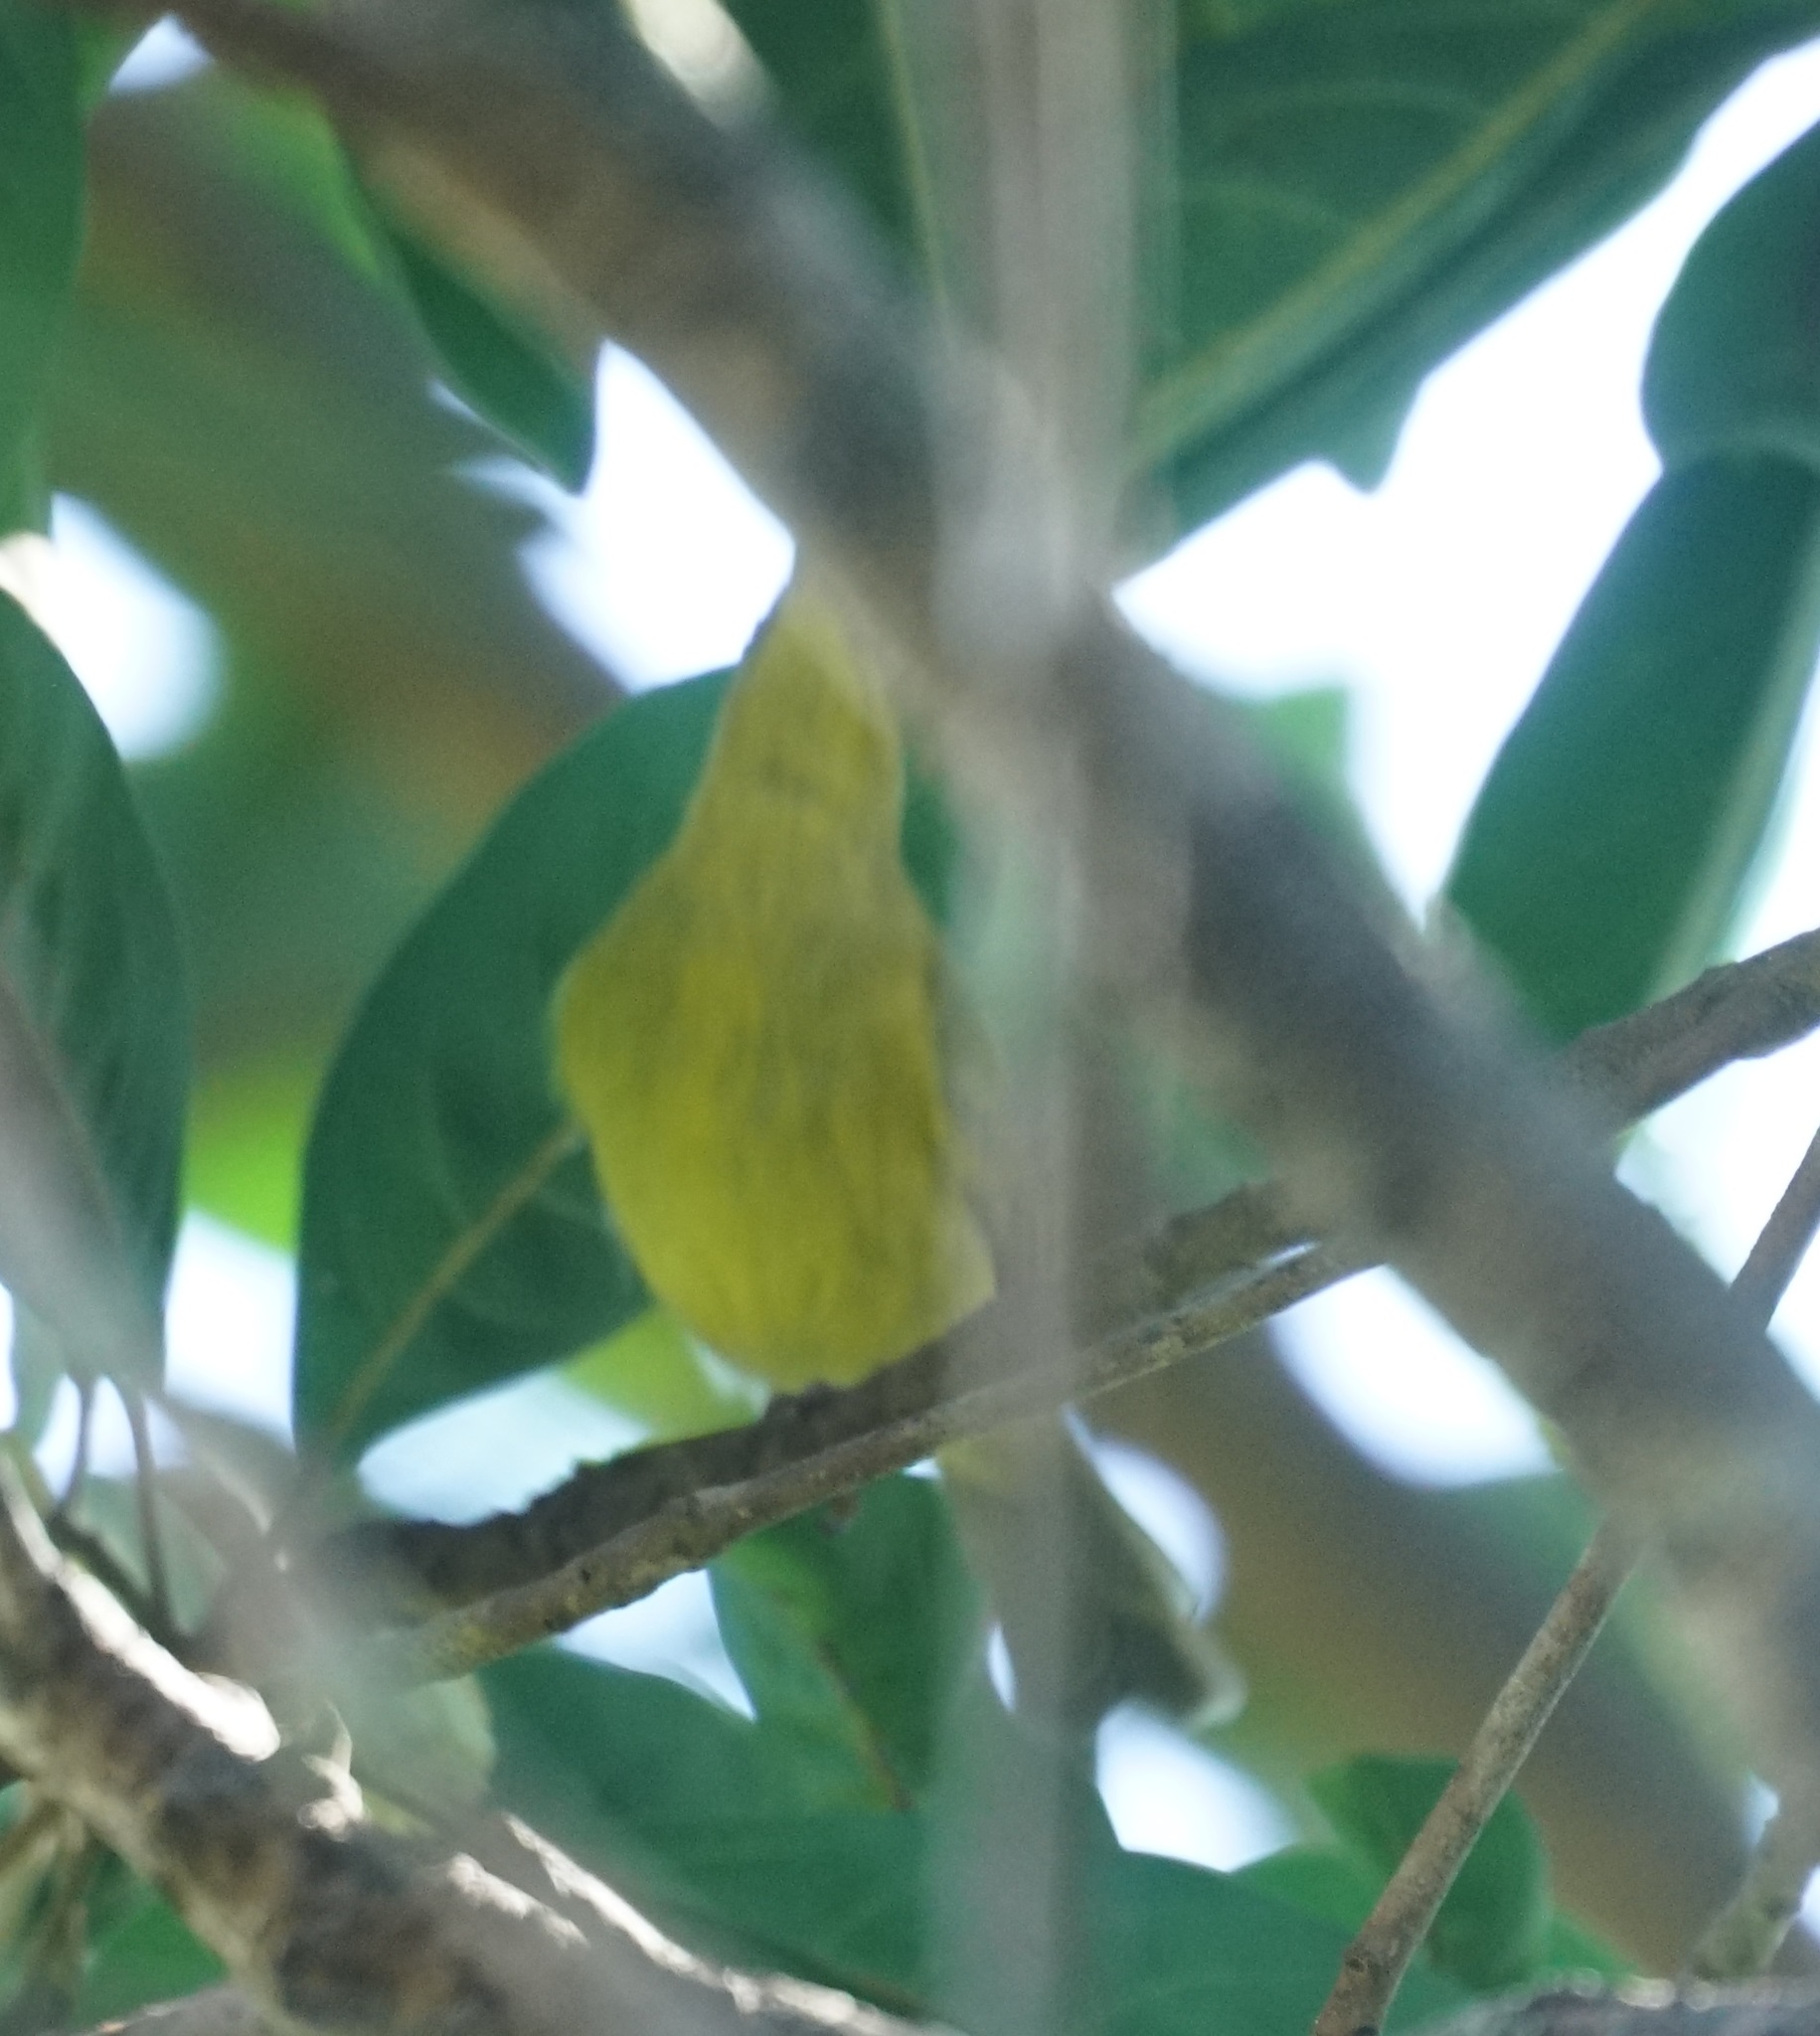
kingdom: Animalia
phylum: Chordata
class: Aves
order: Passeriformes
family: Meliphagidae
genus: Stomiopera
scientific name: Stomiopera flava
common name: Yellow honeyeater
